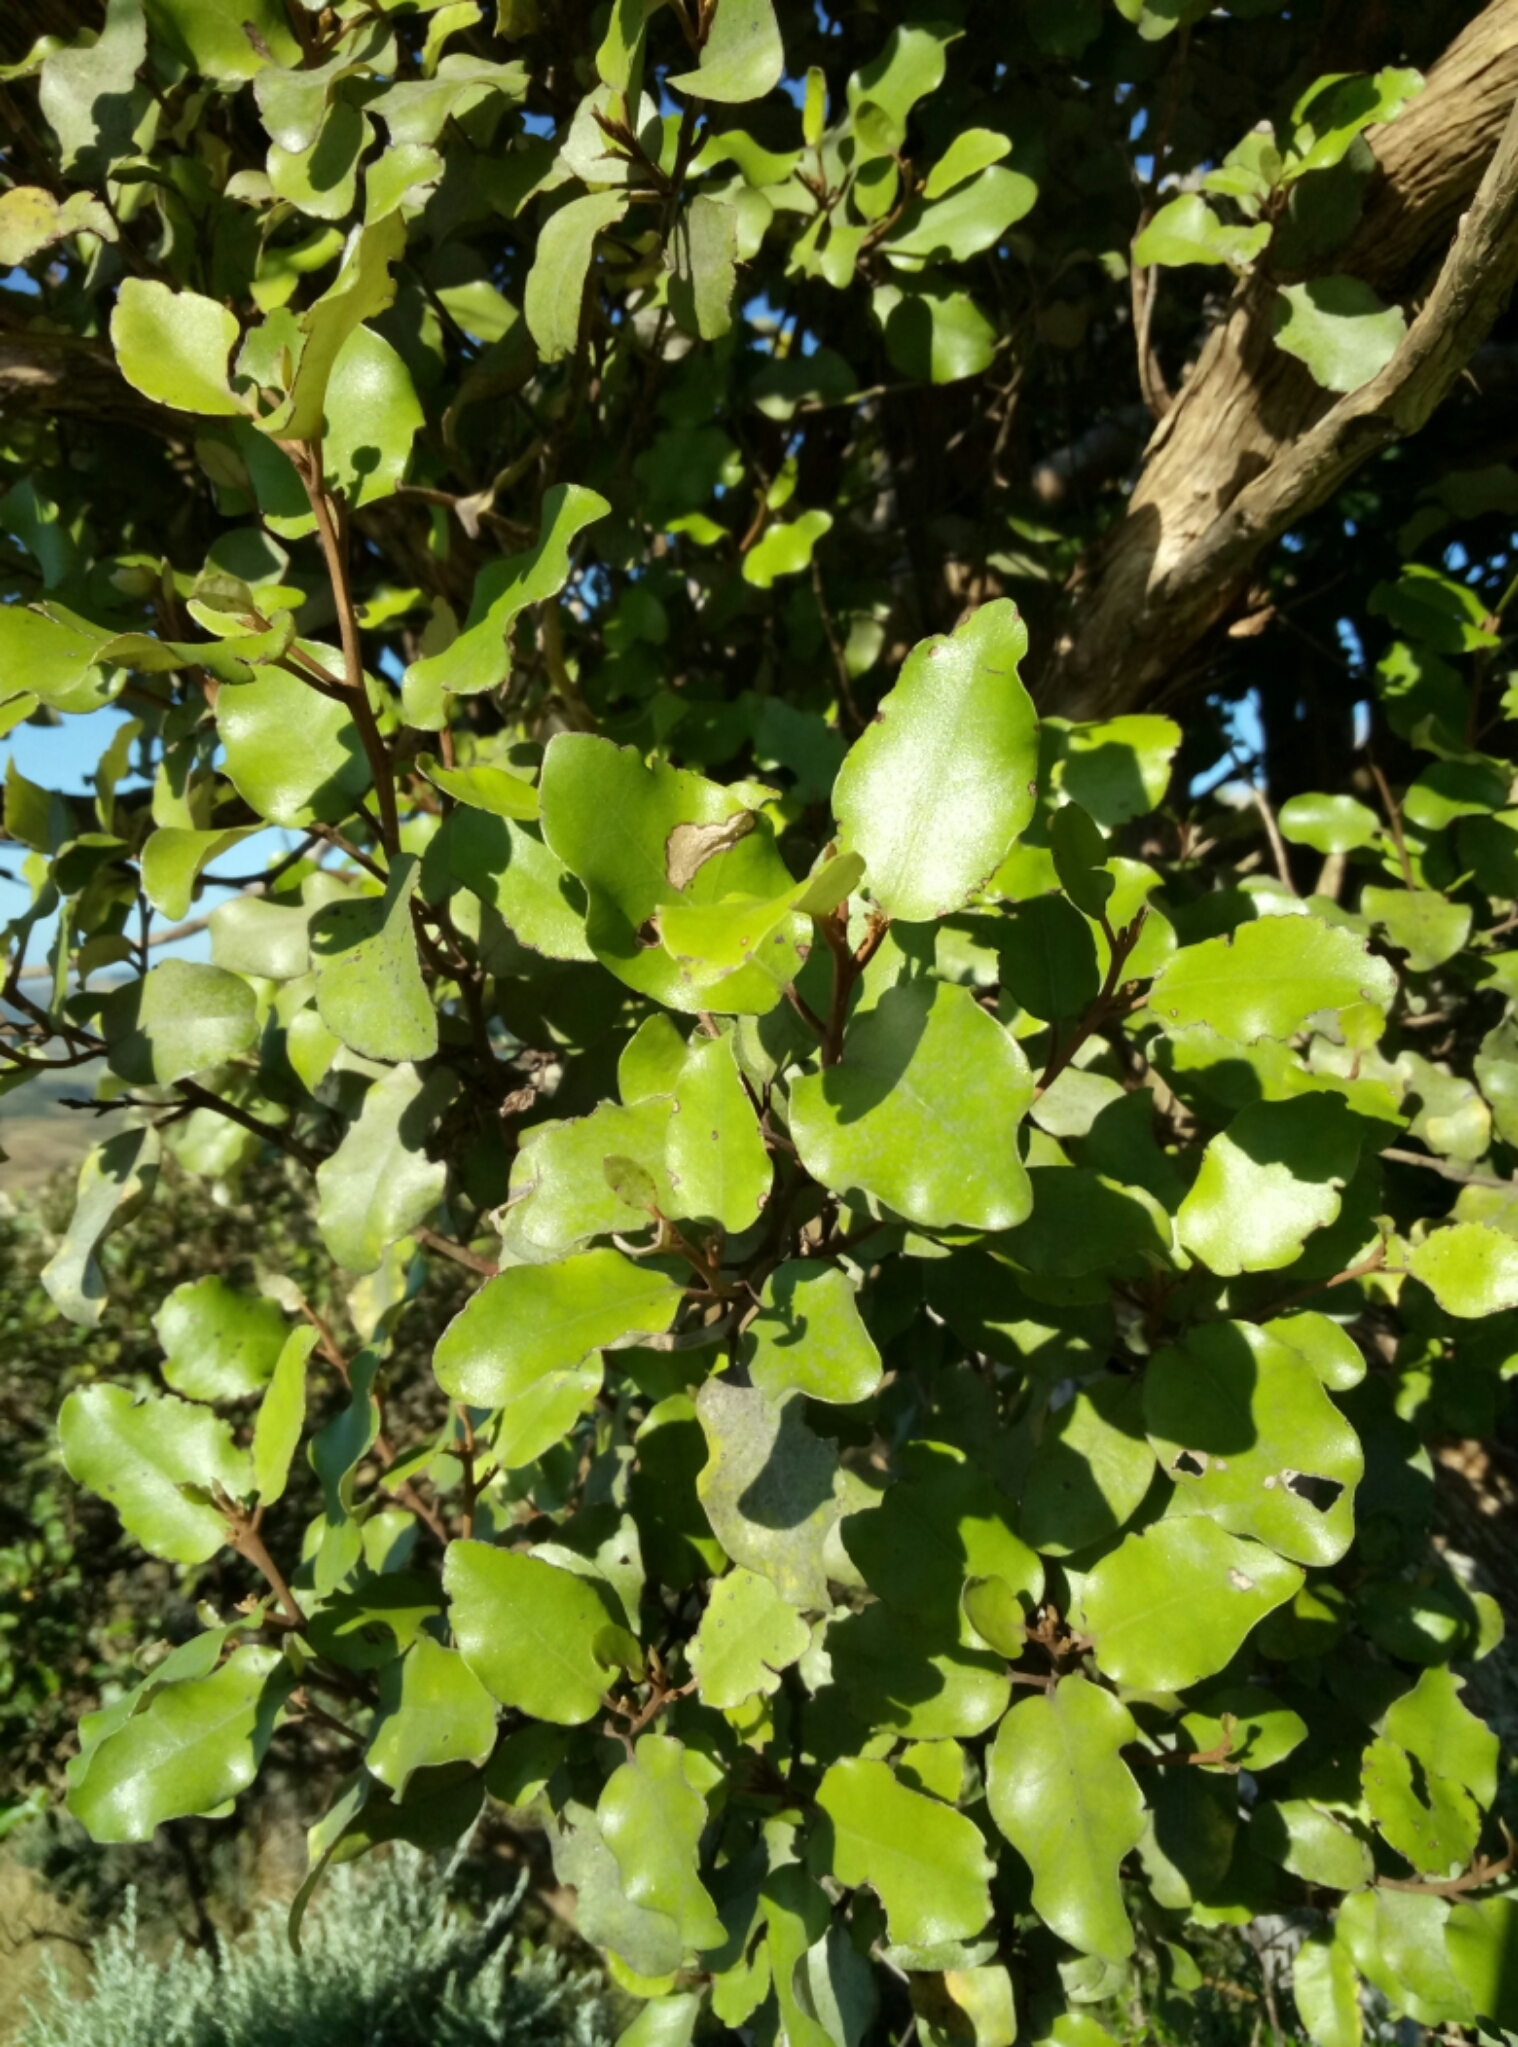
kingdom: Plantae
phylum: Tracheophyta
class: Magnoliopsida
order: Asterales
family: Asteraceae
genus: Olearia
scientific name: Olearia paniculata
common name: Akiraho
